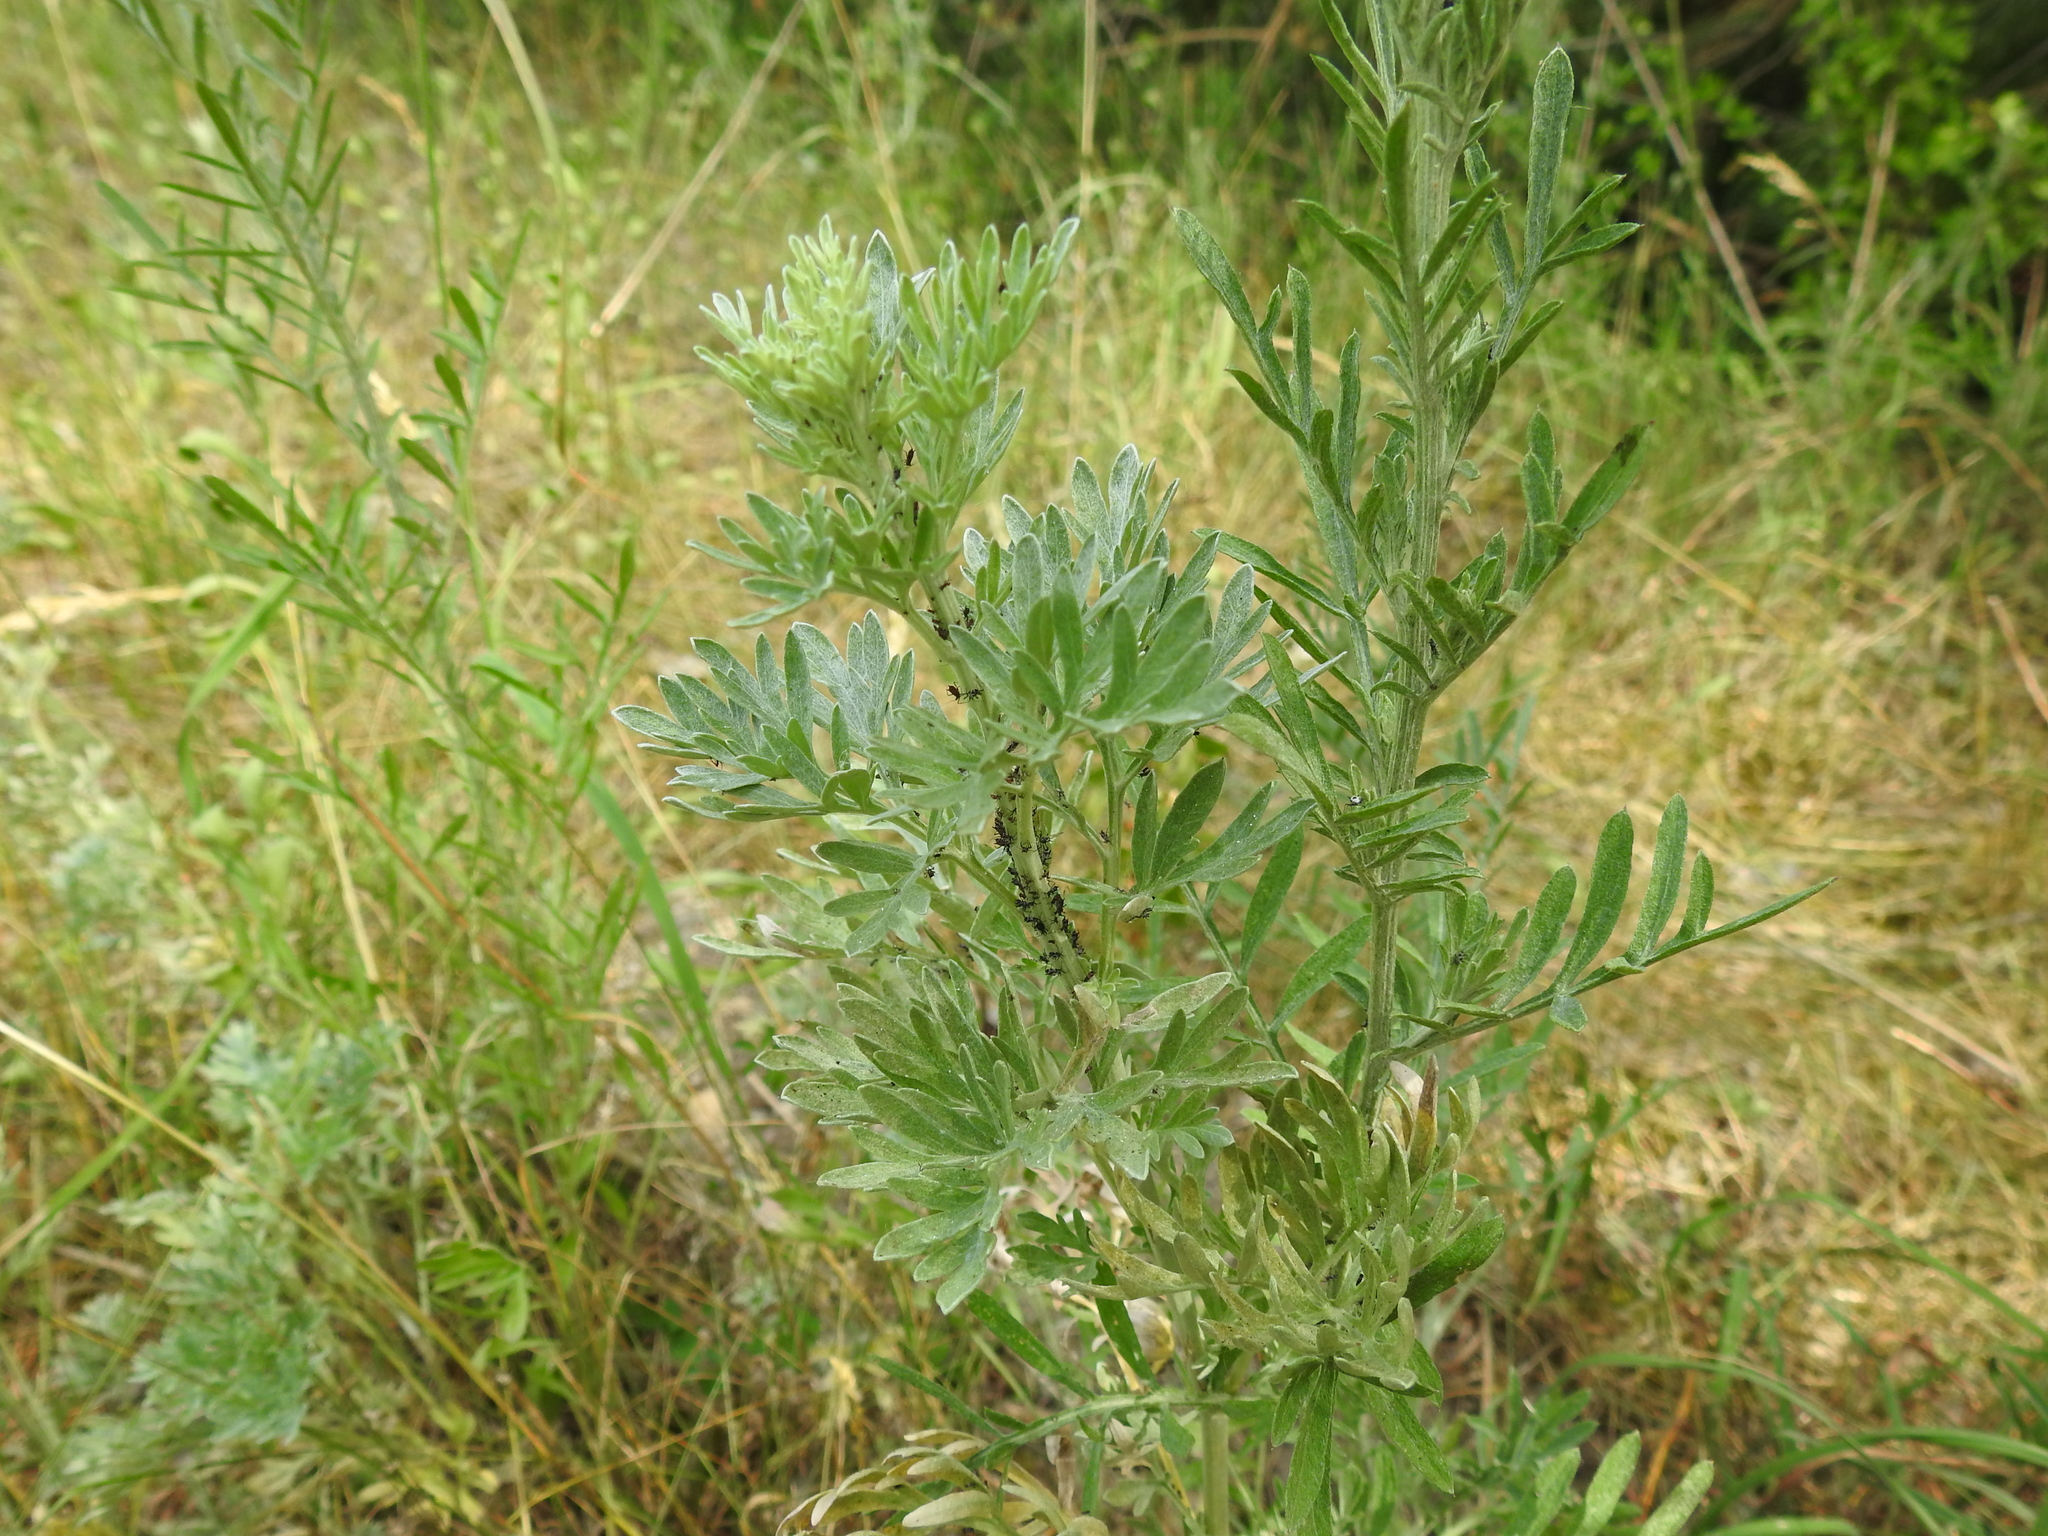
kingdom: Plantae
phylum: Tracheophyta
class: Magnoliopsida
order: Asterales
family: Asteraceae
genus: Artemisia
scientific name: Artemisia absinthium
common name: Wormwood
